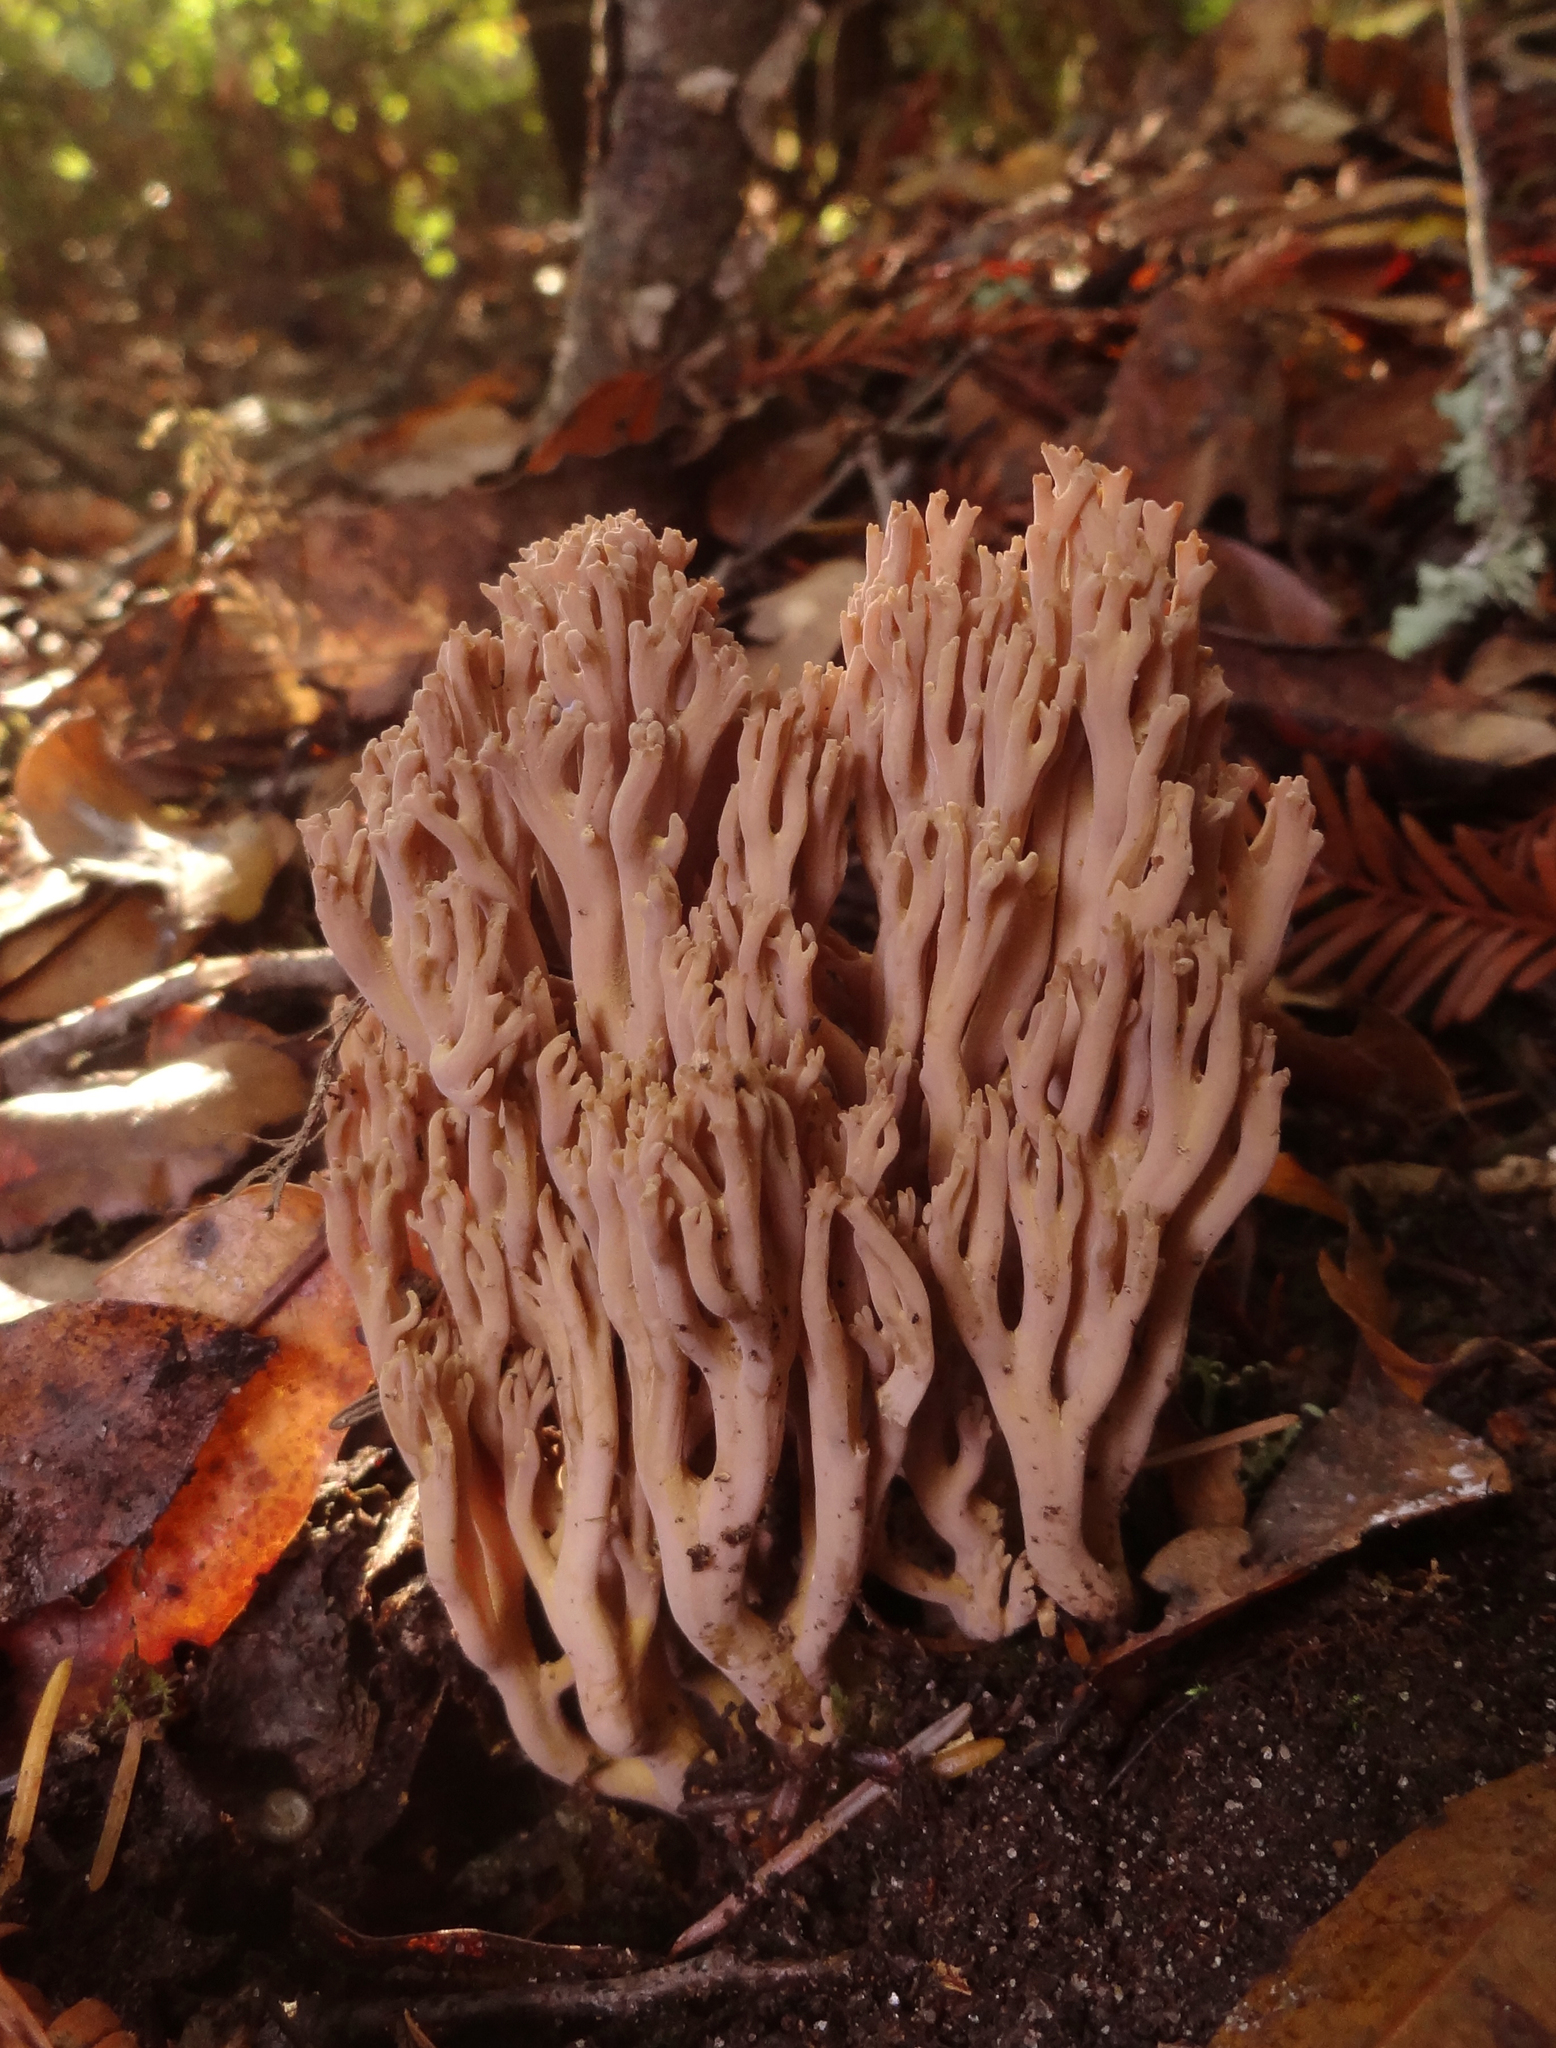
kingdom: Fungi
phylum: Basidiomycota
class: Agaricomycetes
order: Gomphales
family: Gomphaceae
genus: Ramaria
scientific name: Ramaria violaceibrunnea
